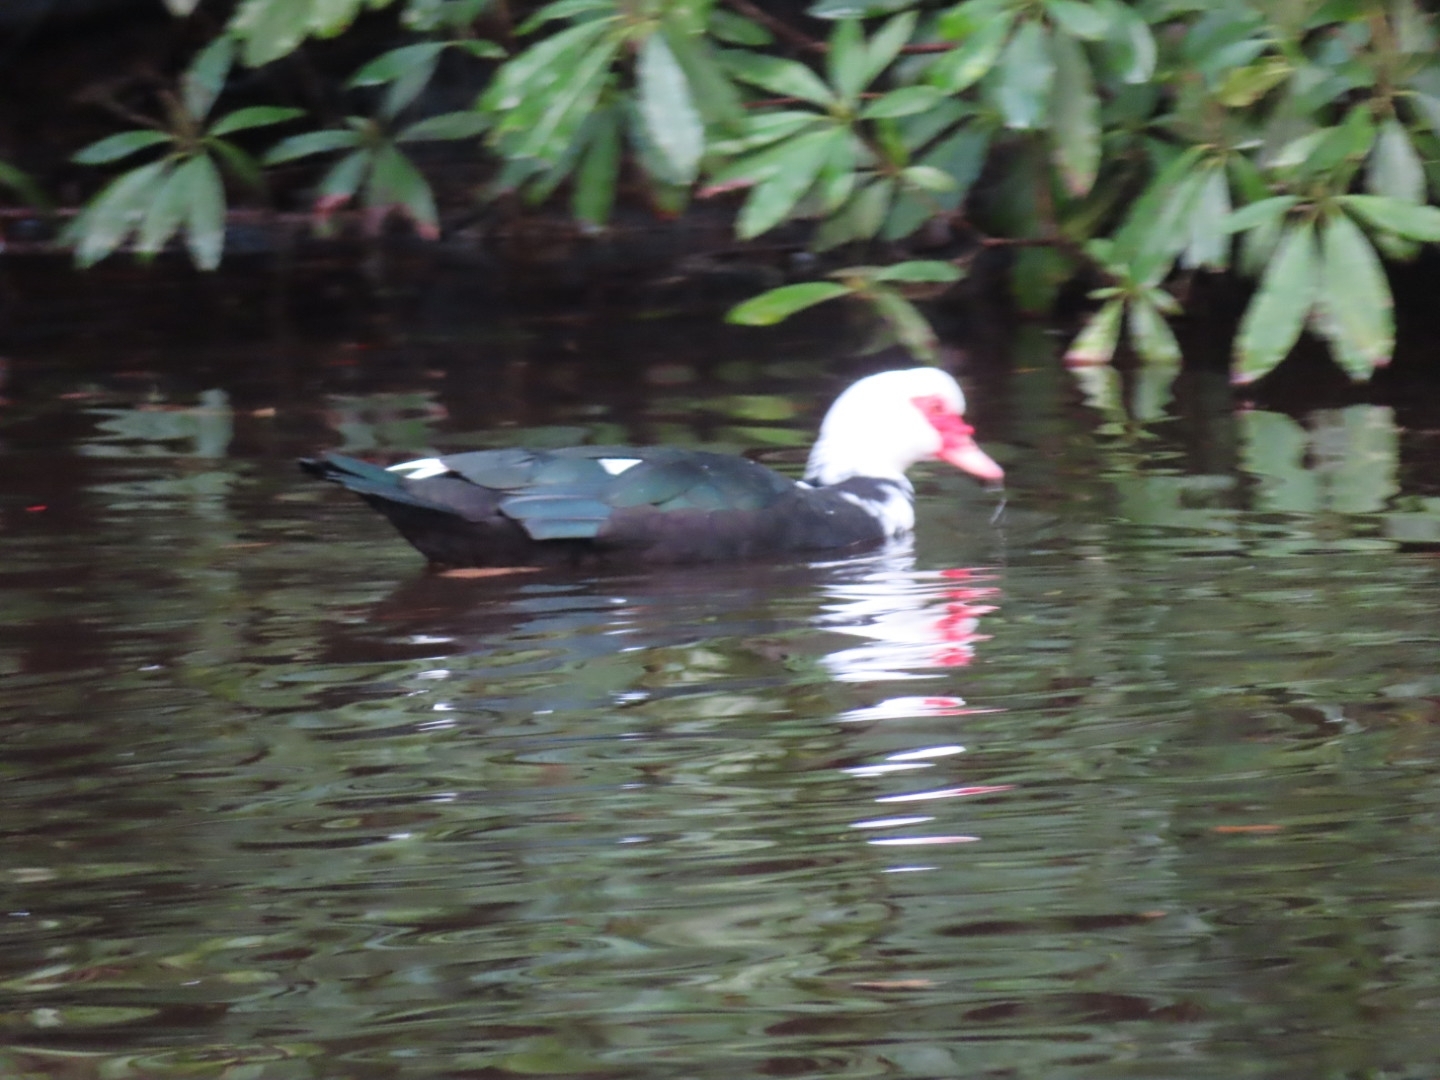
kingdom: Animalia
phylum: Chordata
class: Aves
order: Anseriformes
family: Anatidae
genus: Cairina
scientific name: Cairina moschata
